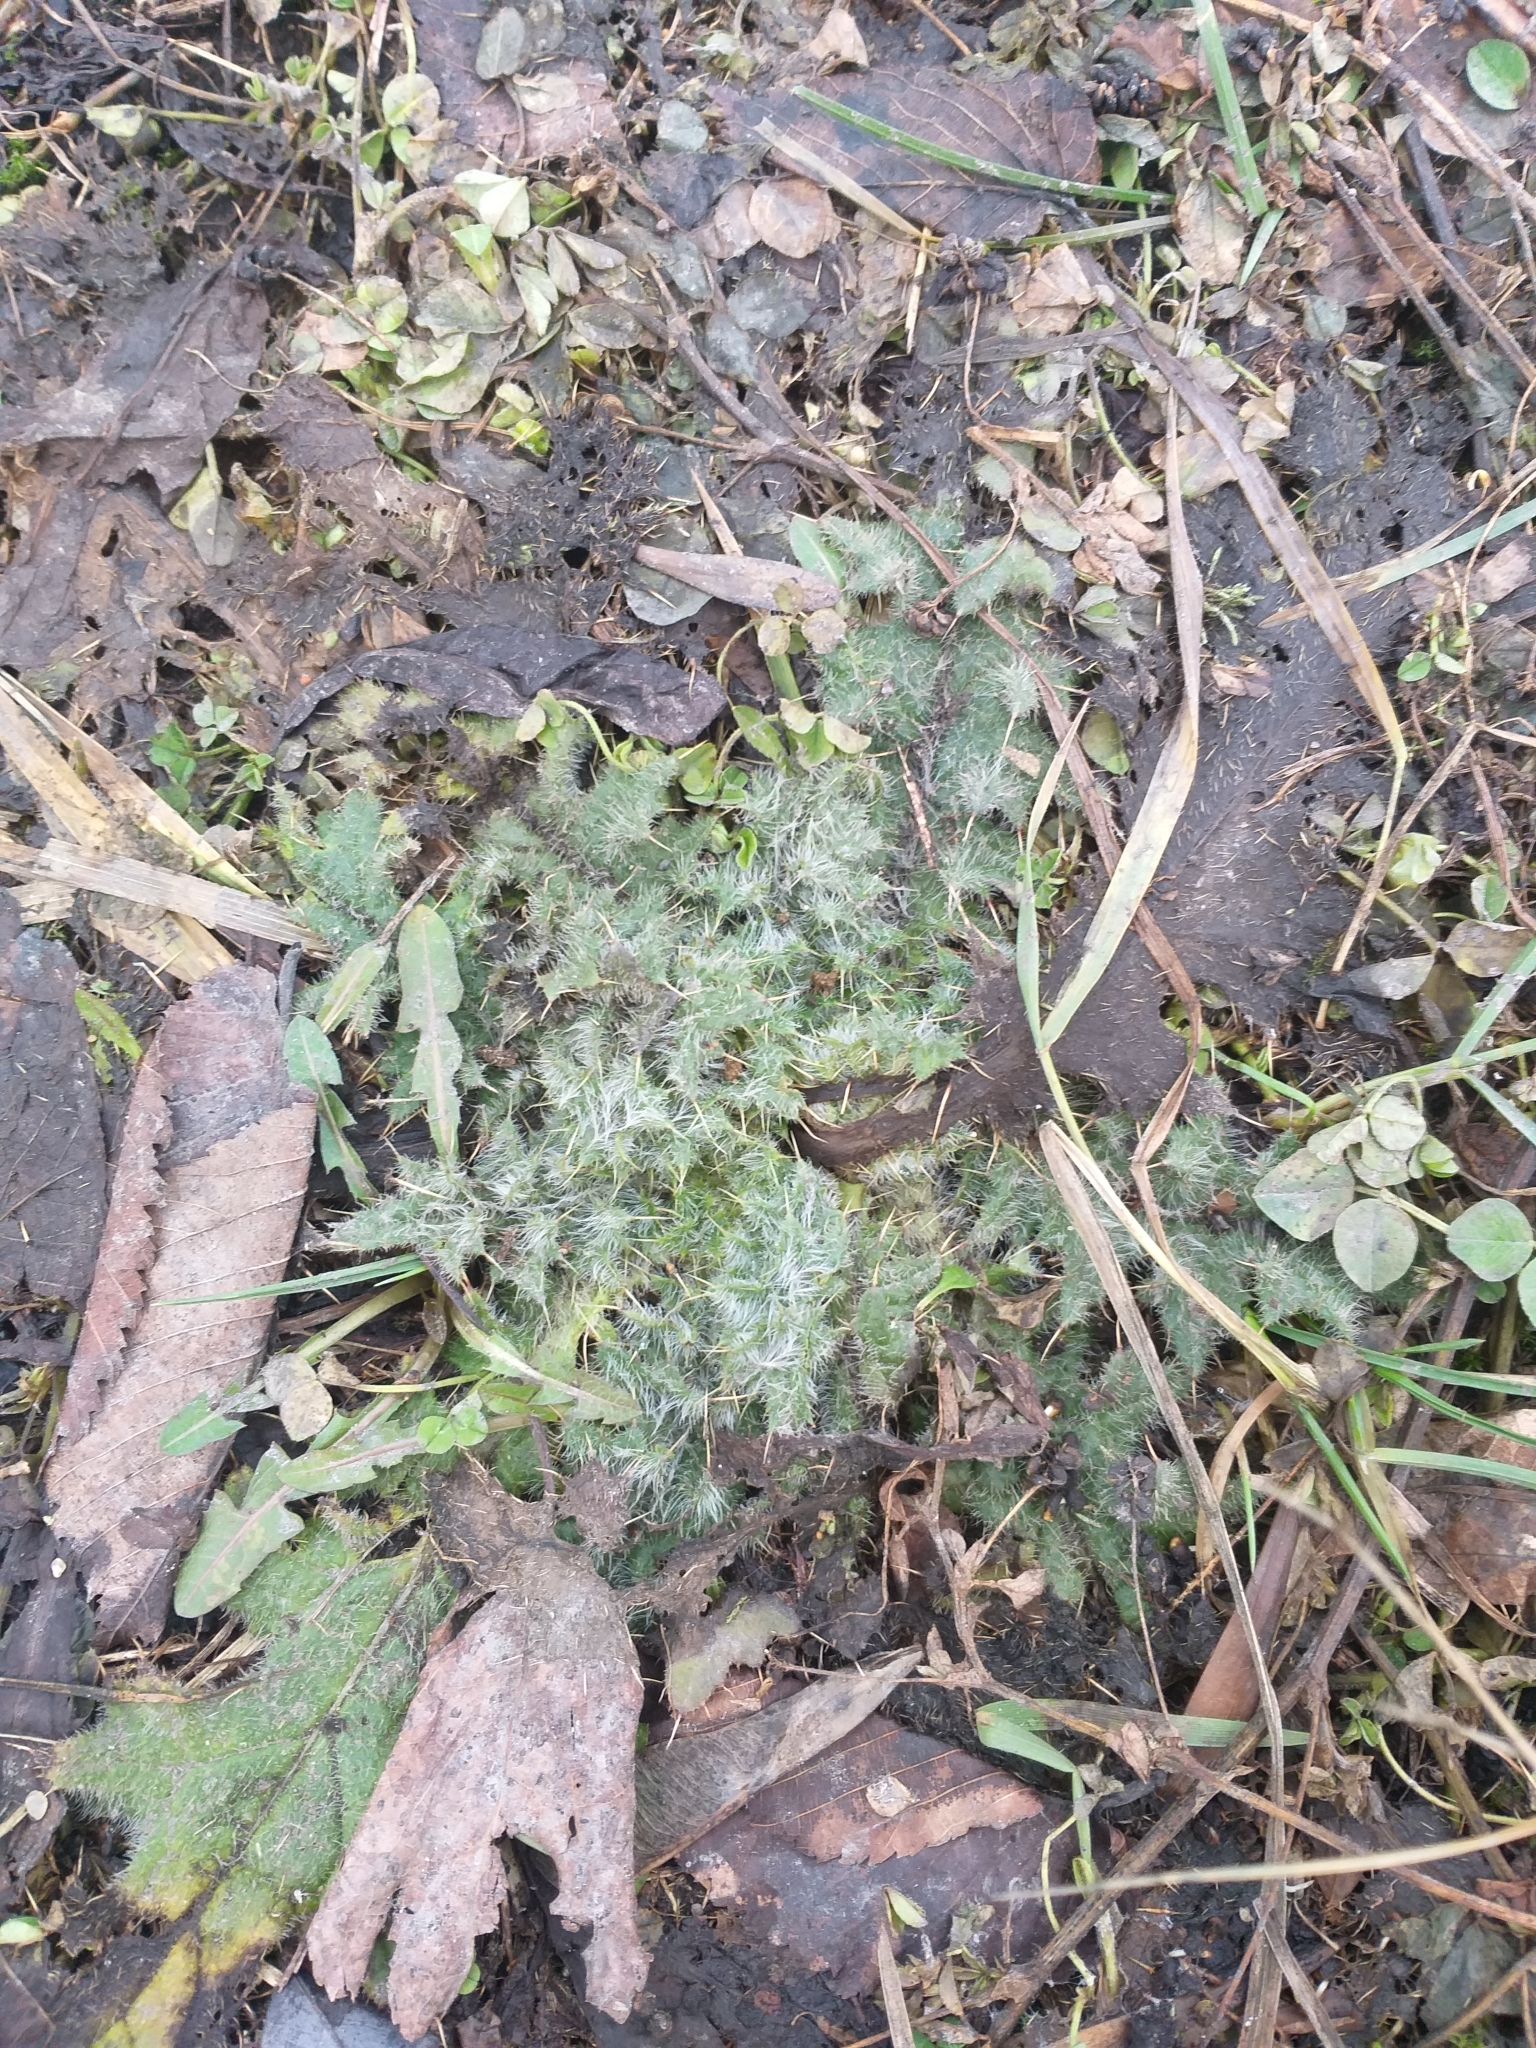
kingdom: Plantae
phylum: Tracheophyta
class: Magnoliopsida
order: Asterales
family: Asteraceae
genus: Cirsium
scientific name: Cirsium vulgare
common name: Bull thistle
